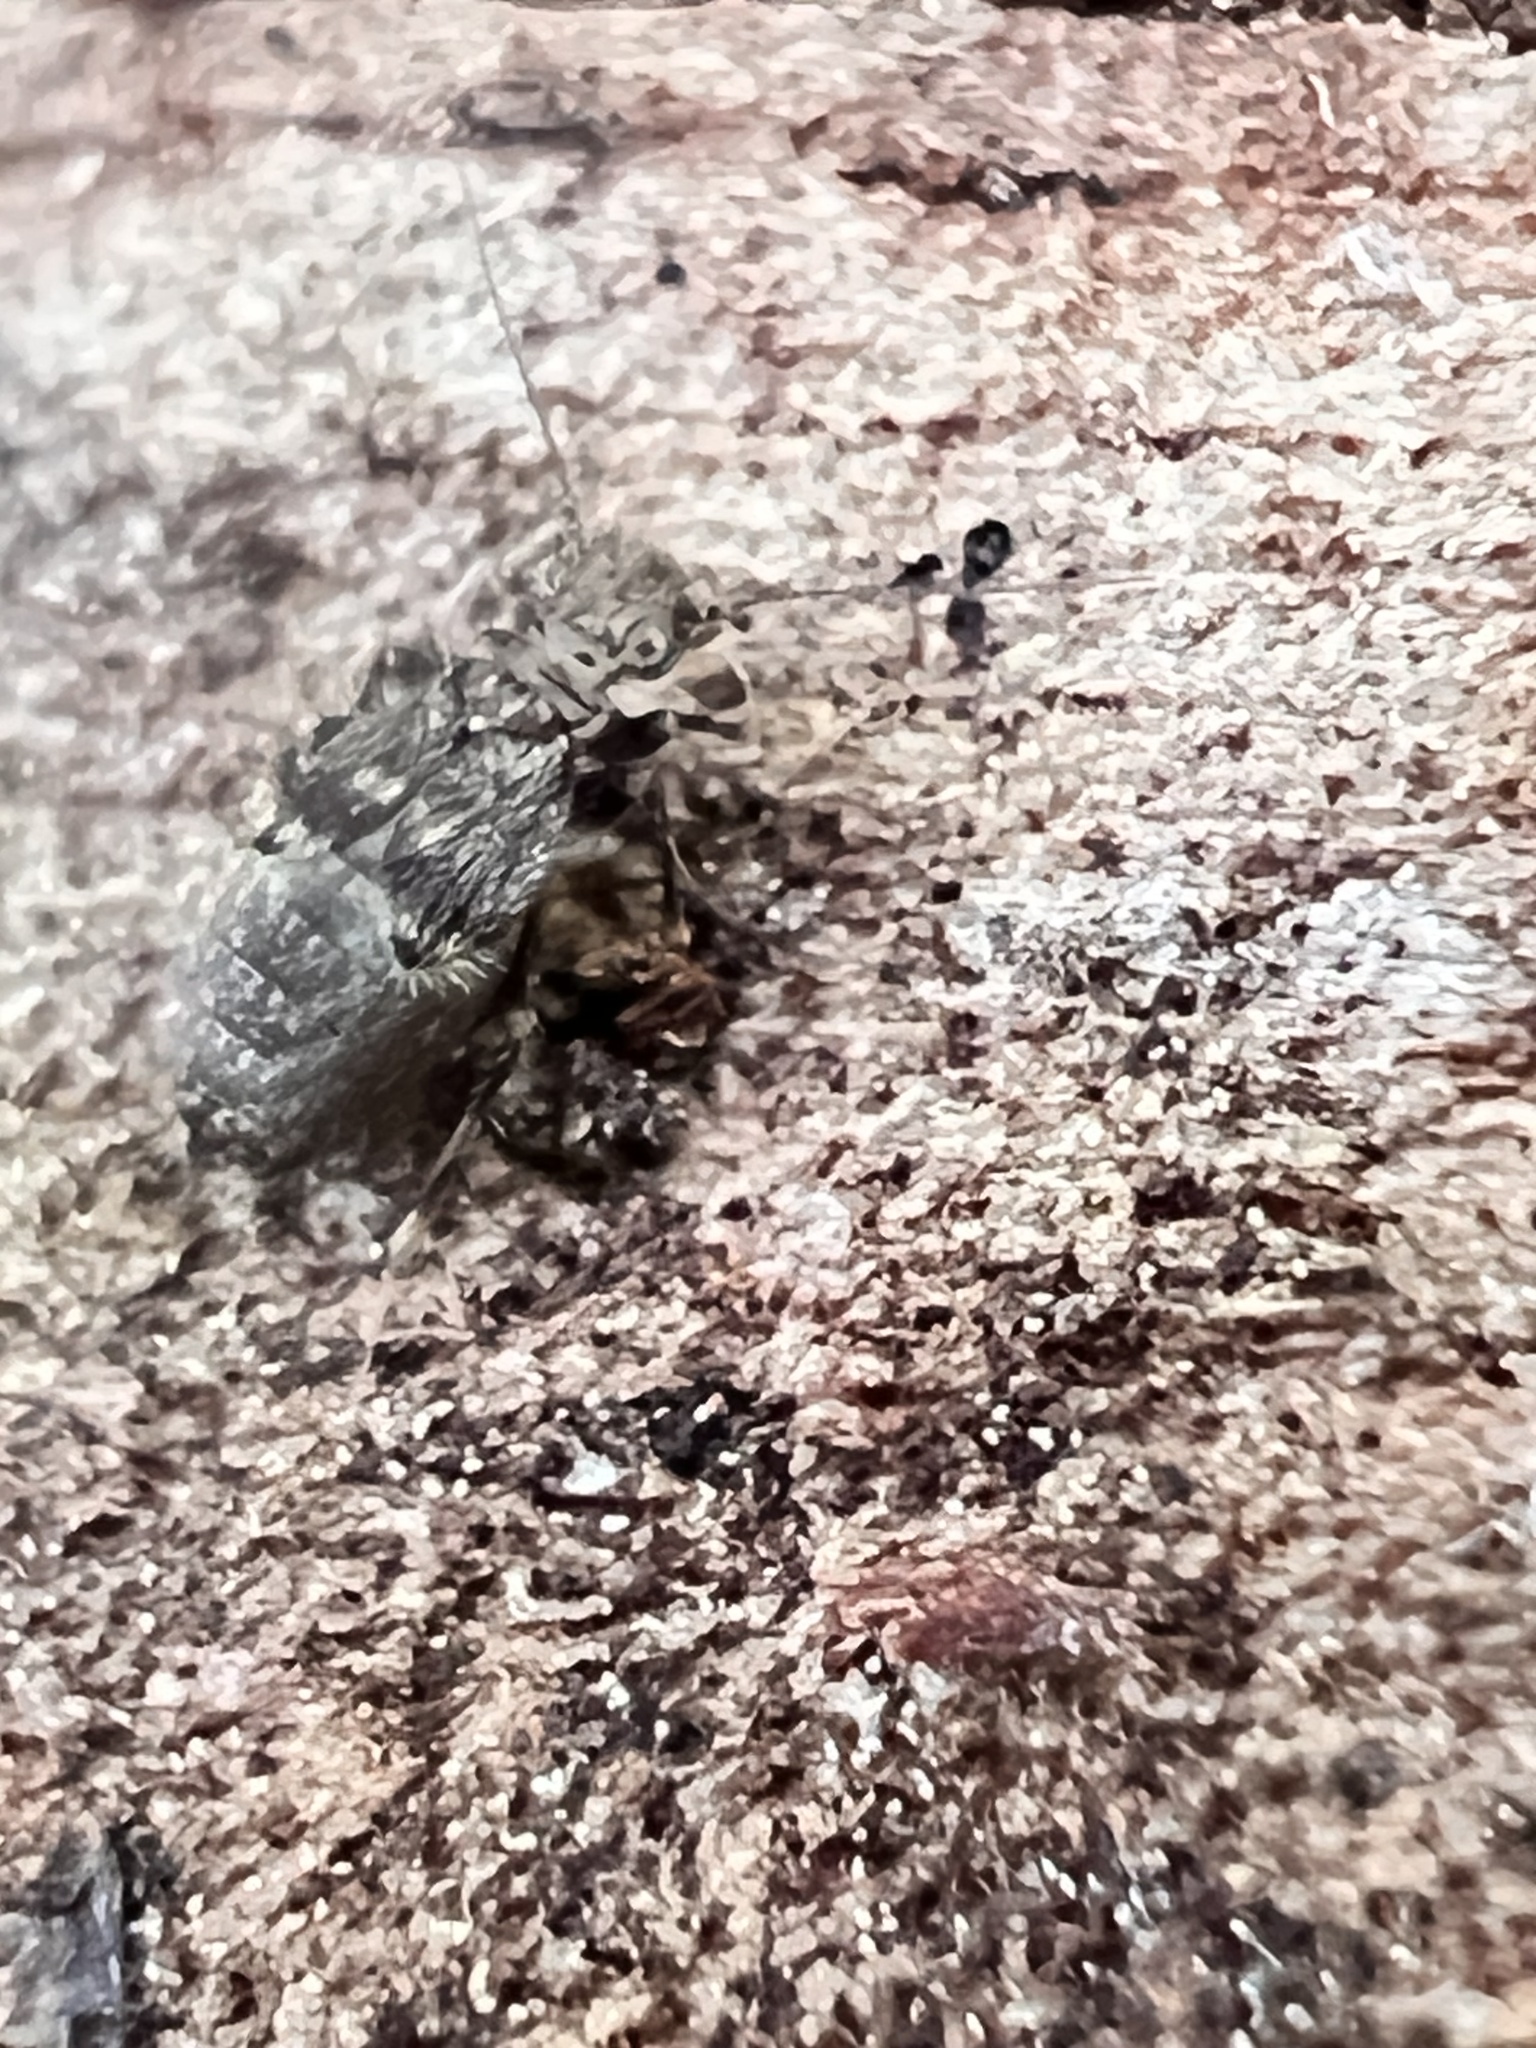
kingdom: Animalia
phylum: Arthropoda
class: Insecta
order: Psocodea
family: Lepidopsocidae
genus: Pteroxanium
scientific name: Pteroxanium kelloggi
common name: Bark lice
